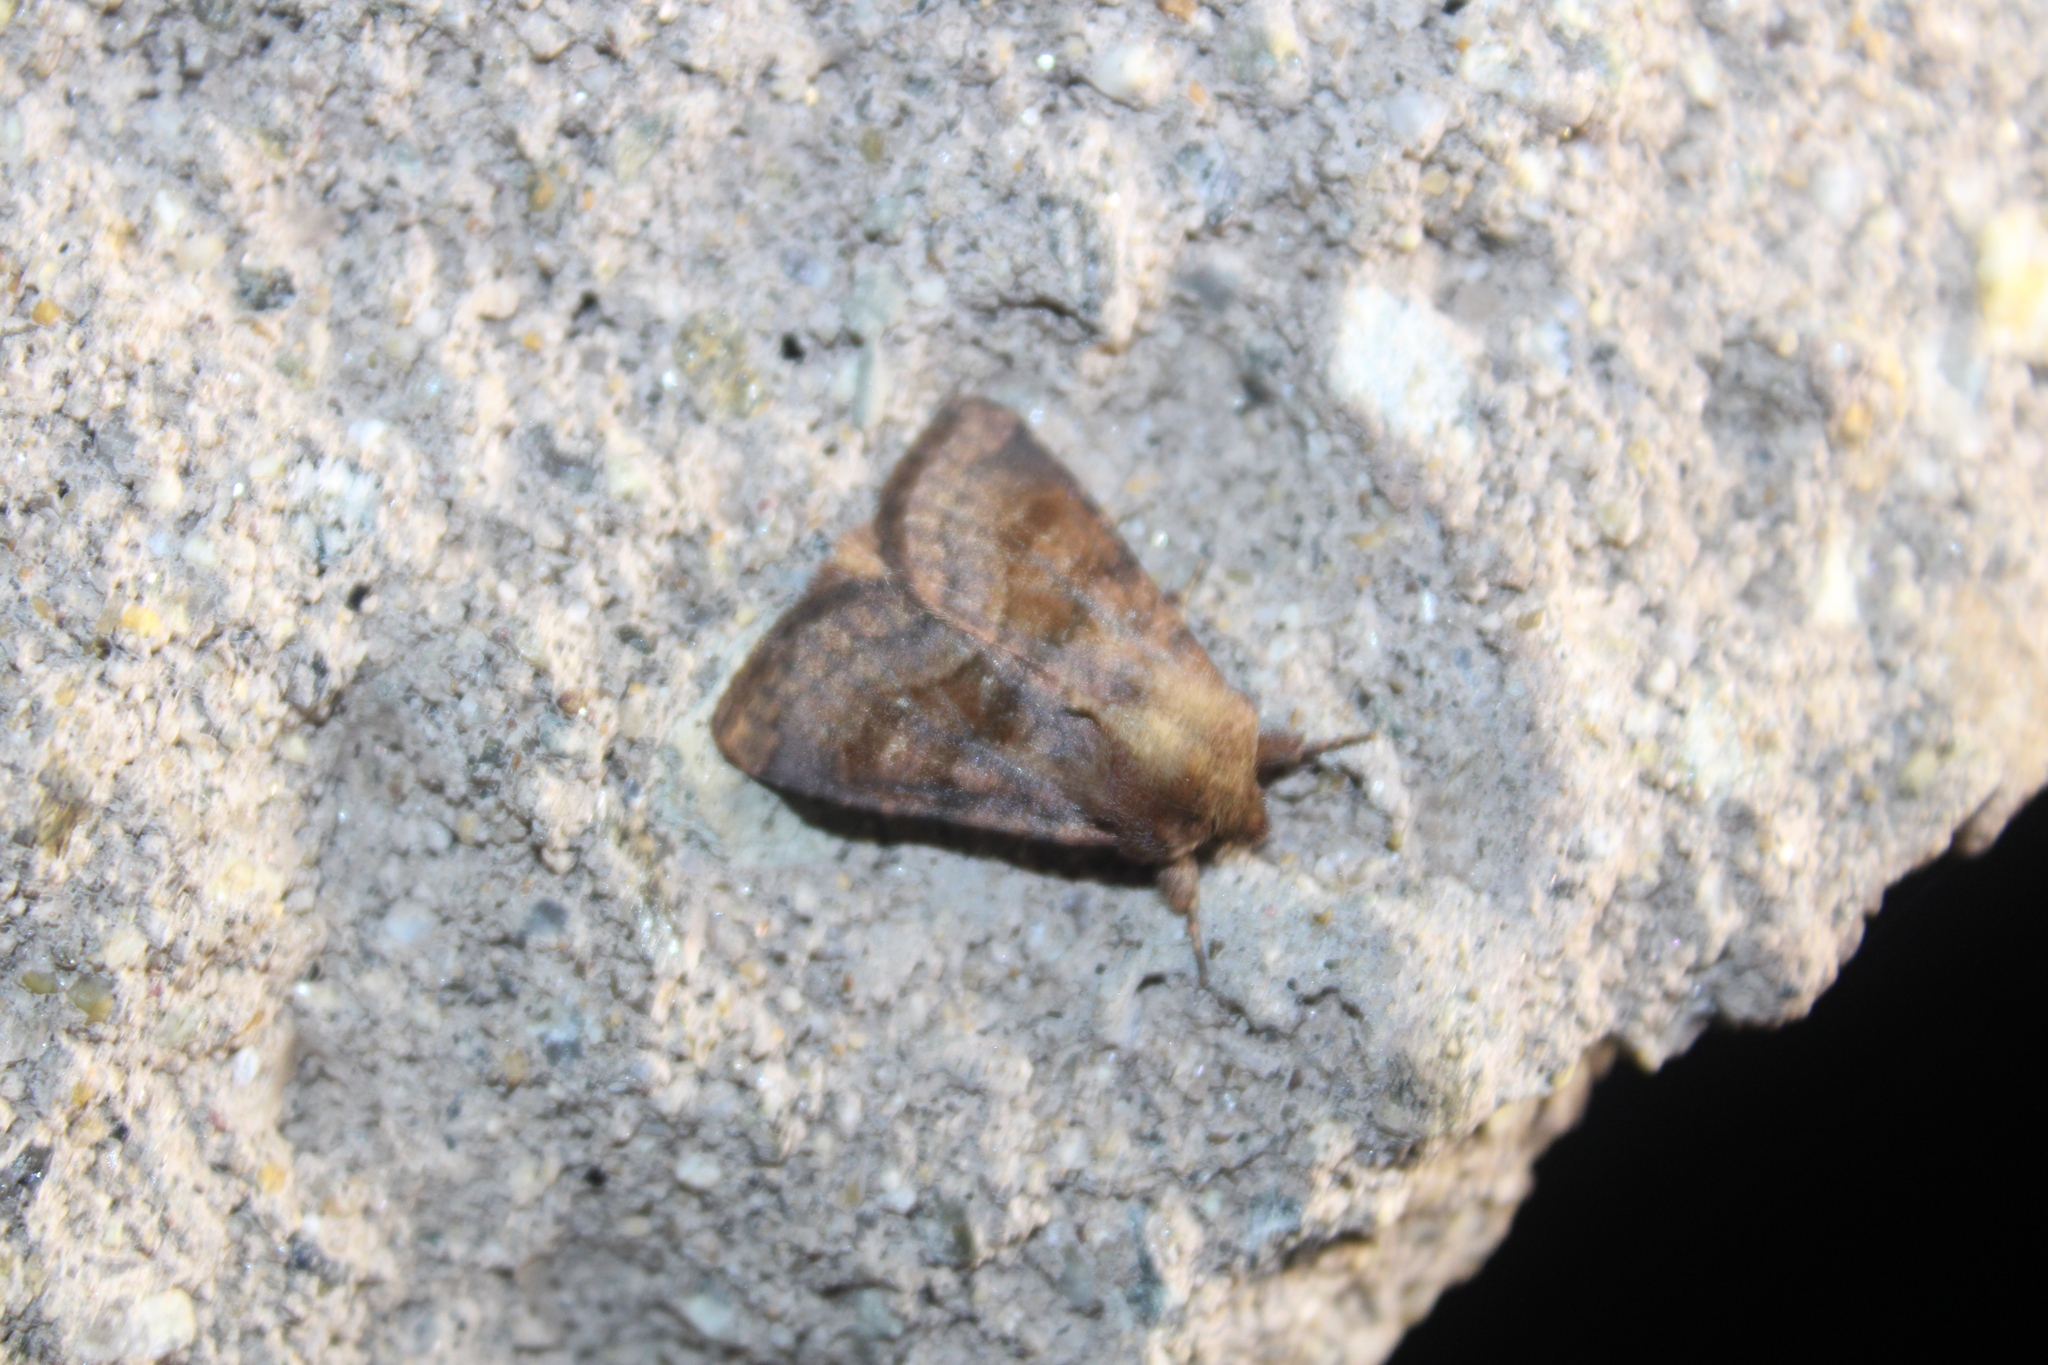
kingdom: Animalia
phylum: Arthropoda
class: Insecta
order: Lepidoptera
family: Noctuidae
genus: Nephelodes
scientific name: Nephelodes minians
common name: Bronzed cutworm
